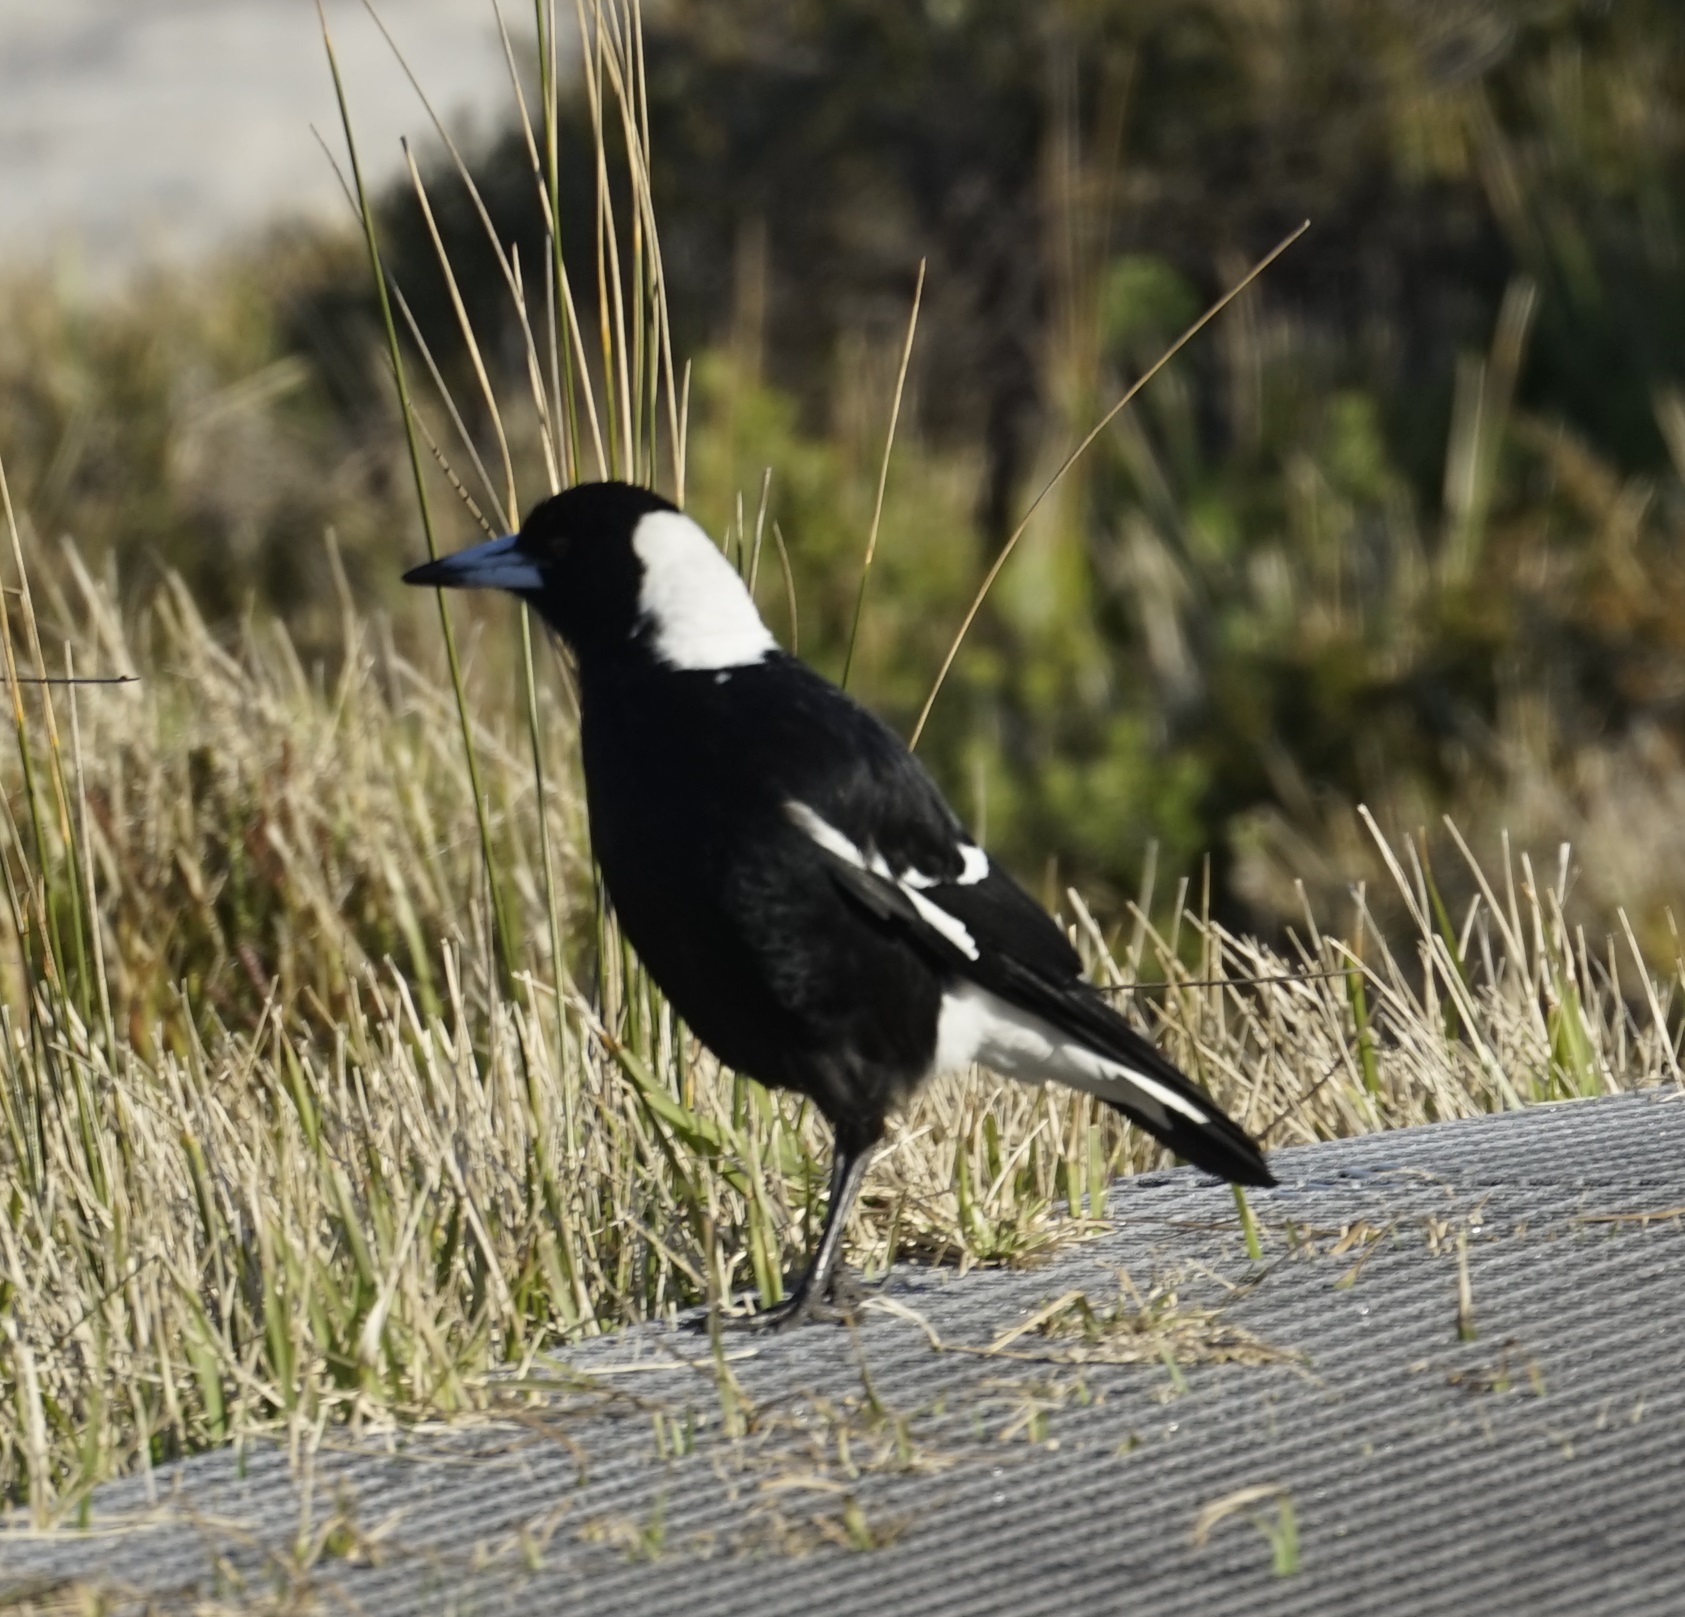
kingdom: Animalia
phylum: Chordata
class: Aves
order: Passeriformes
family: Cracticidae
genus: Gymnorhina
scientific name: Gymnorhina tibicen
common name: Australian magpie
